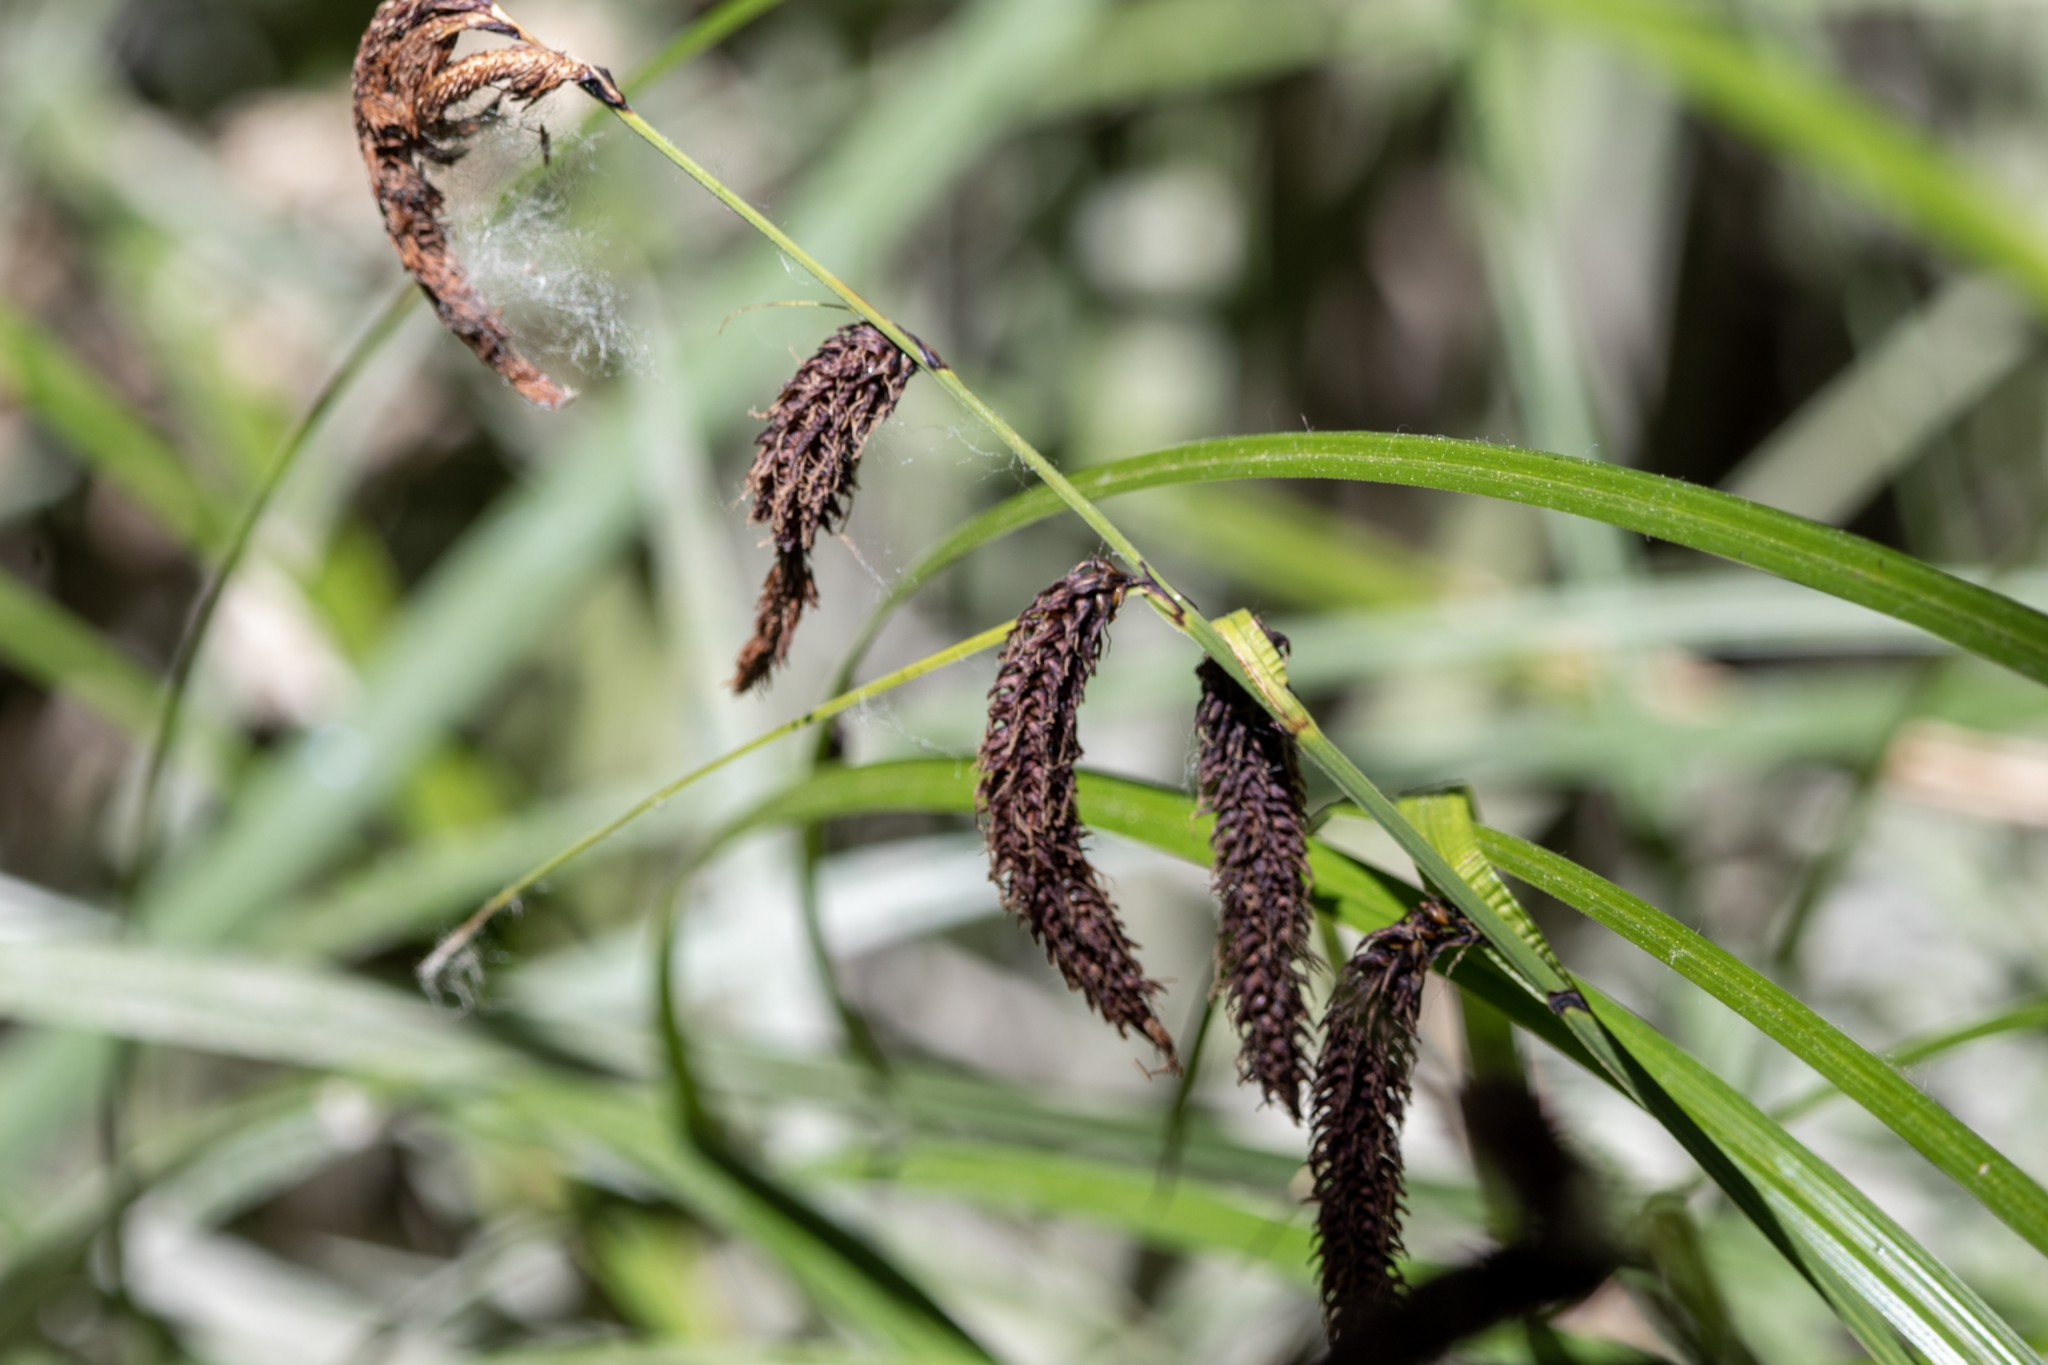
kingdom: Plantae
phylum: Tracheophyta
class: Liliopsida
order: Poales
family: Cyperaceae
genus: Carex
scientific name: Carex obnupta
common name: Slough sedge
